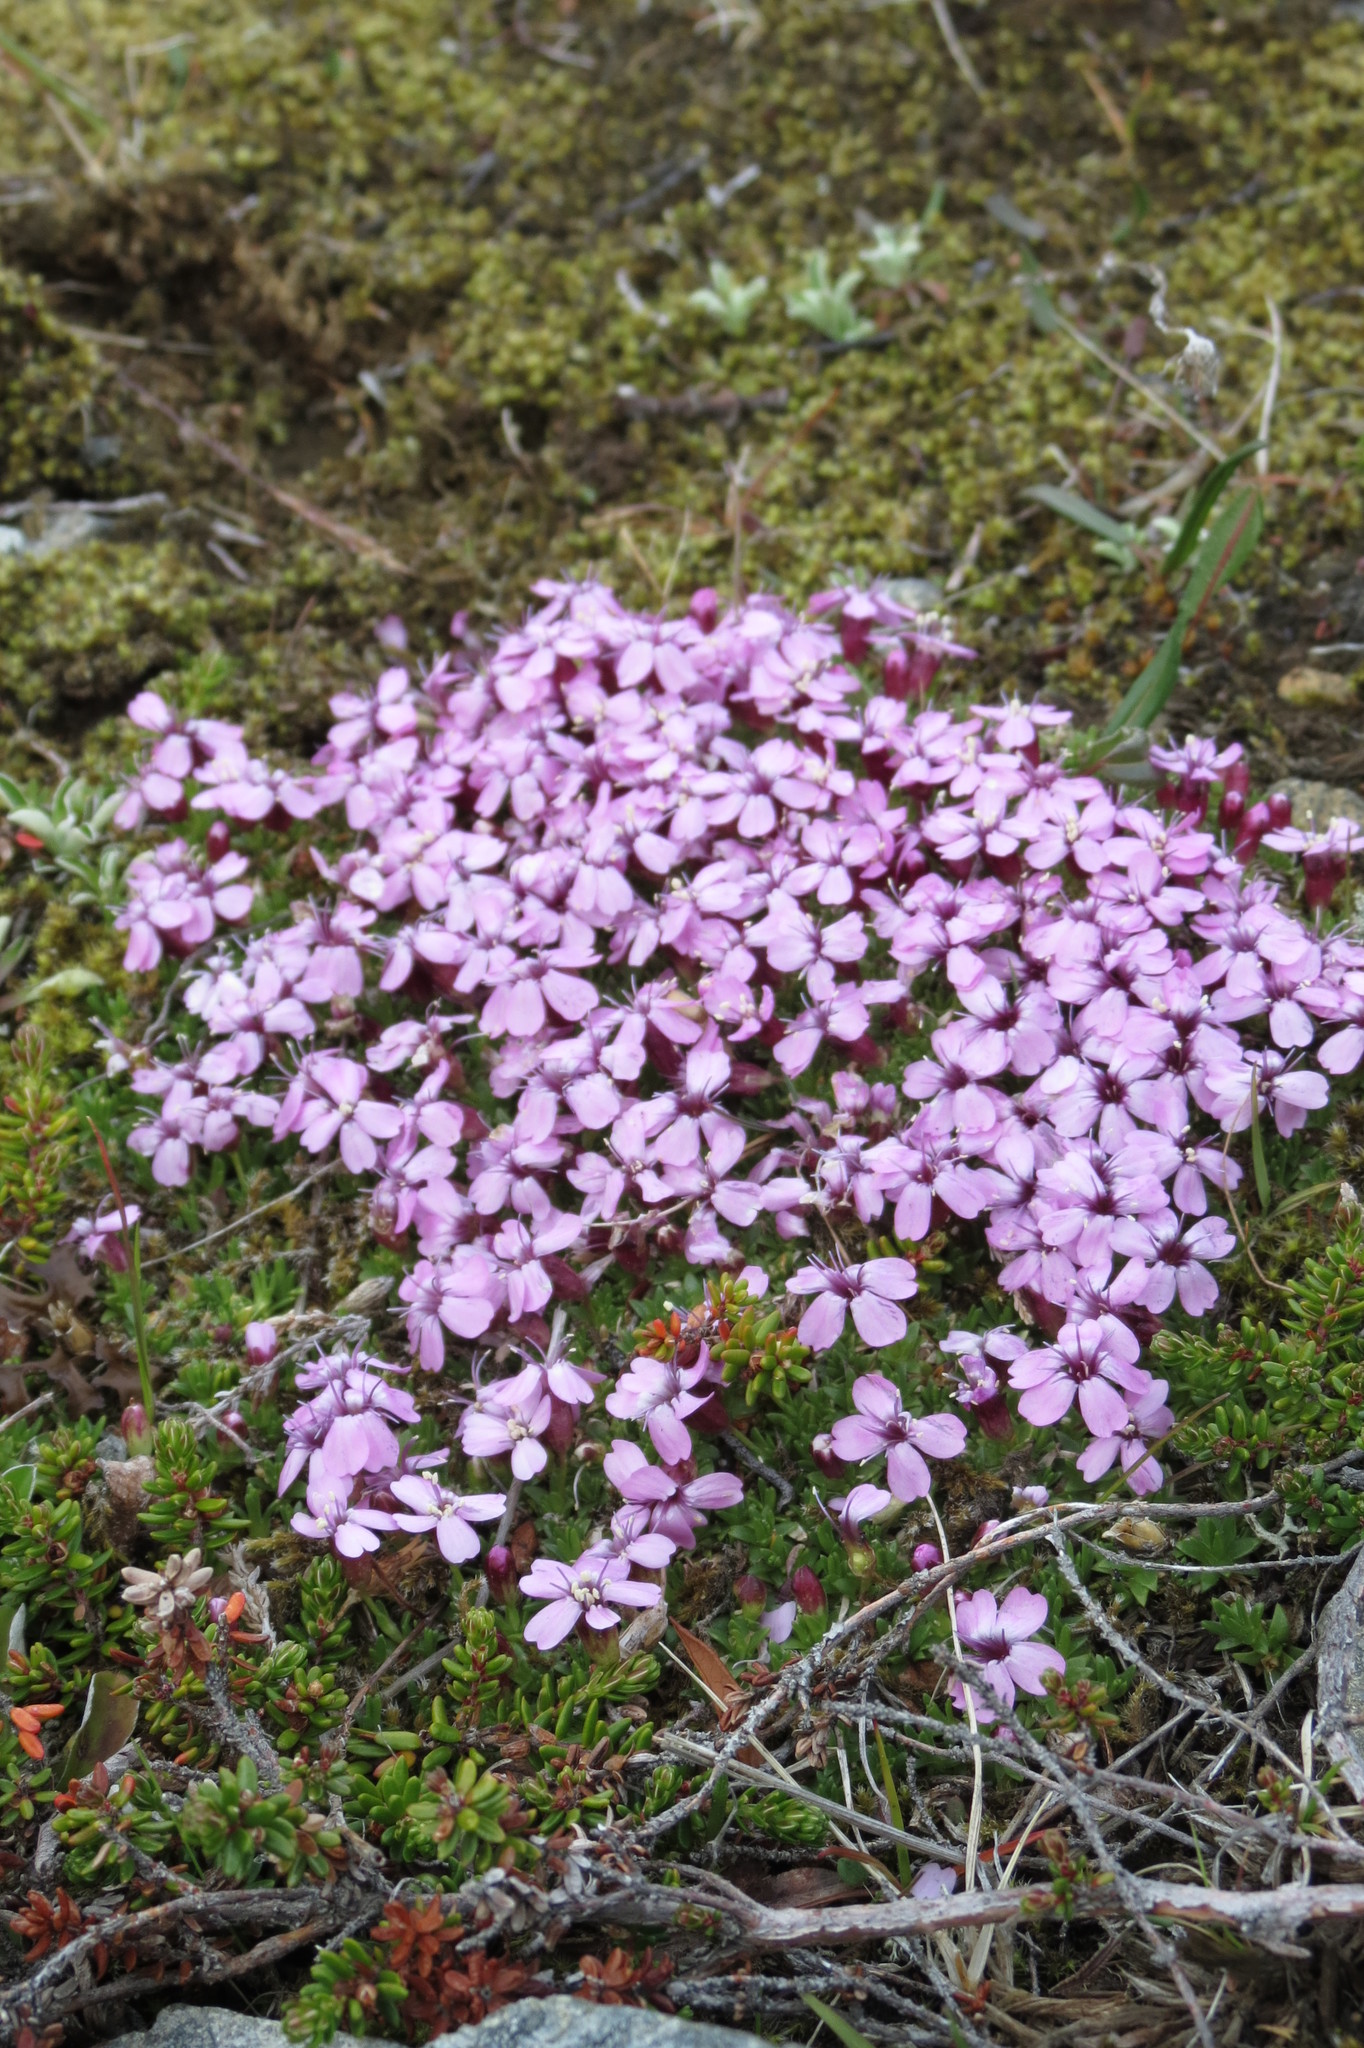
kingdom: Plantae
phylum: Tracheophyta
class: Magnoliopsida
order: Caryophyllales
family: Caryophyllaceae
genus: Silene
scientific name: Silene acaulis
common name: Moss campion
